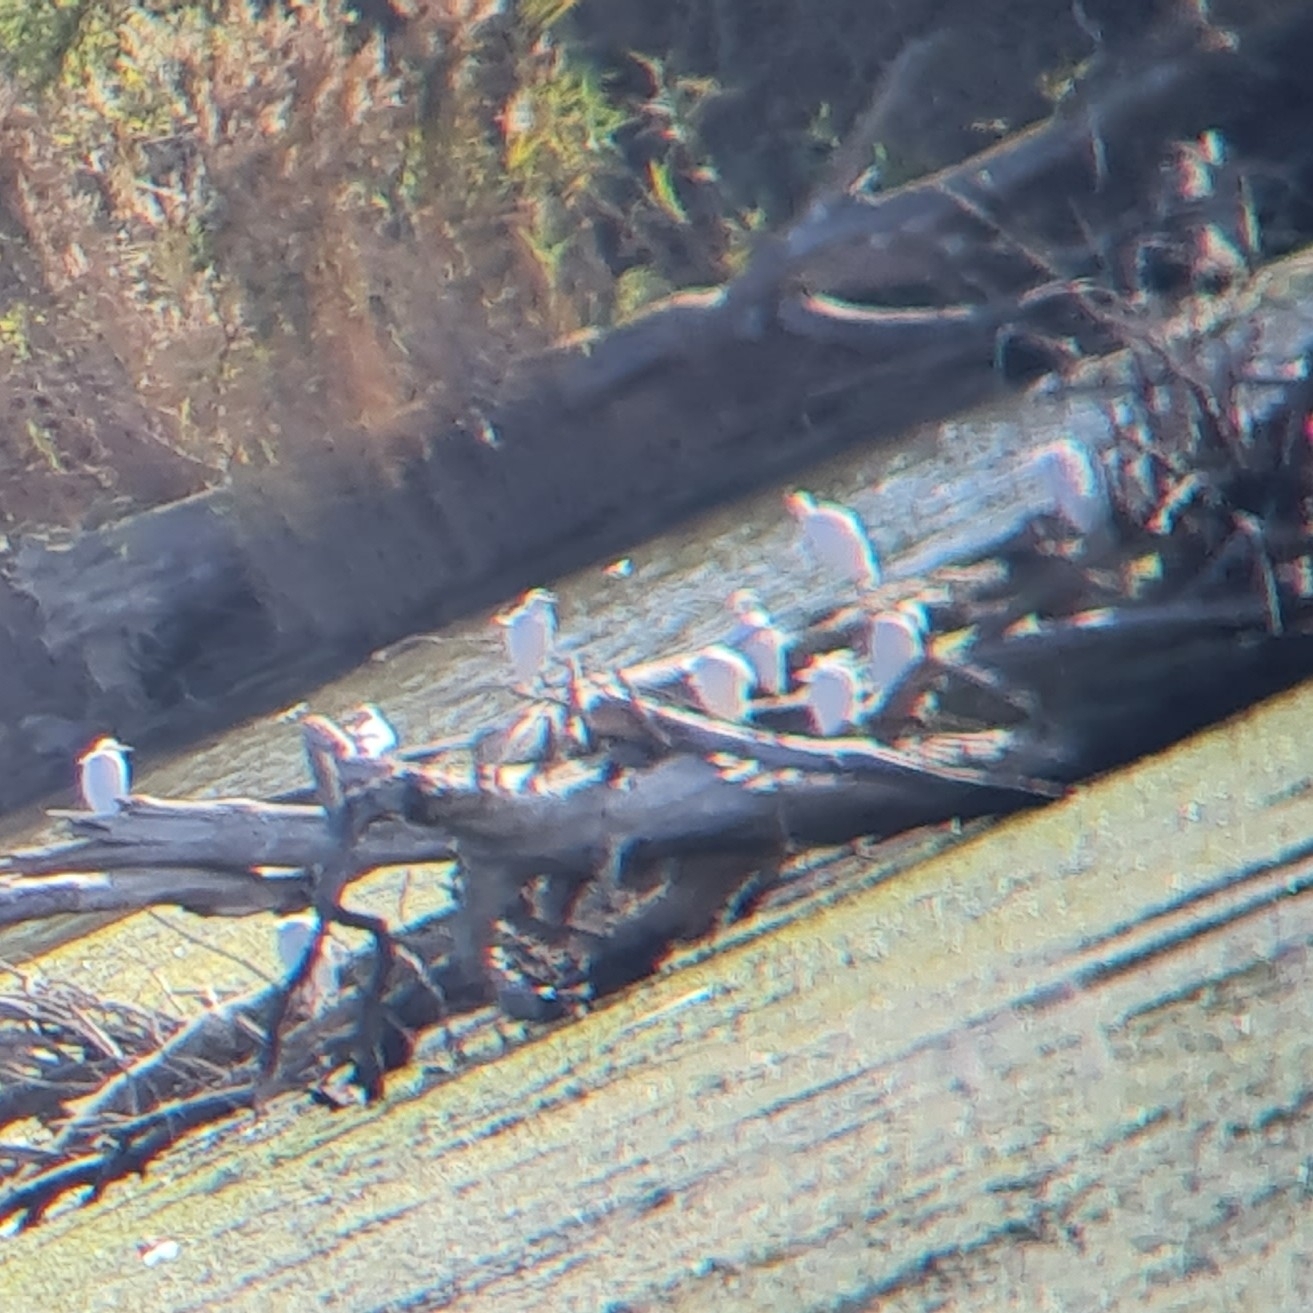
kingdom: Animalia
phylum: Chordata
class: Aves
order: Pelecaniformes
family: Ardeidae
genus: Egretta
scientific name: Egretta garzetta
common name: Little egret
